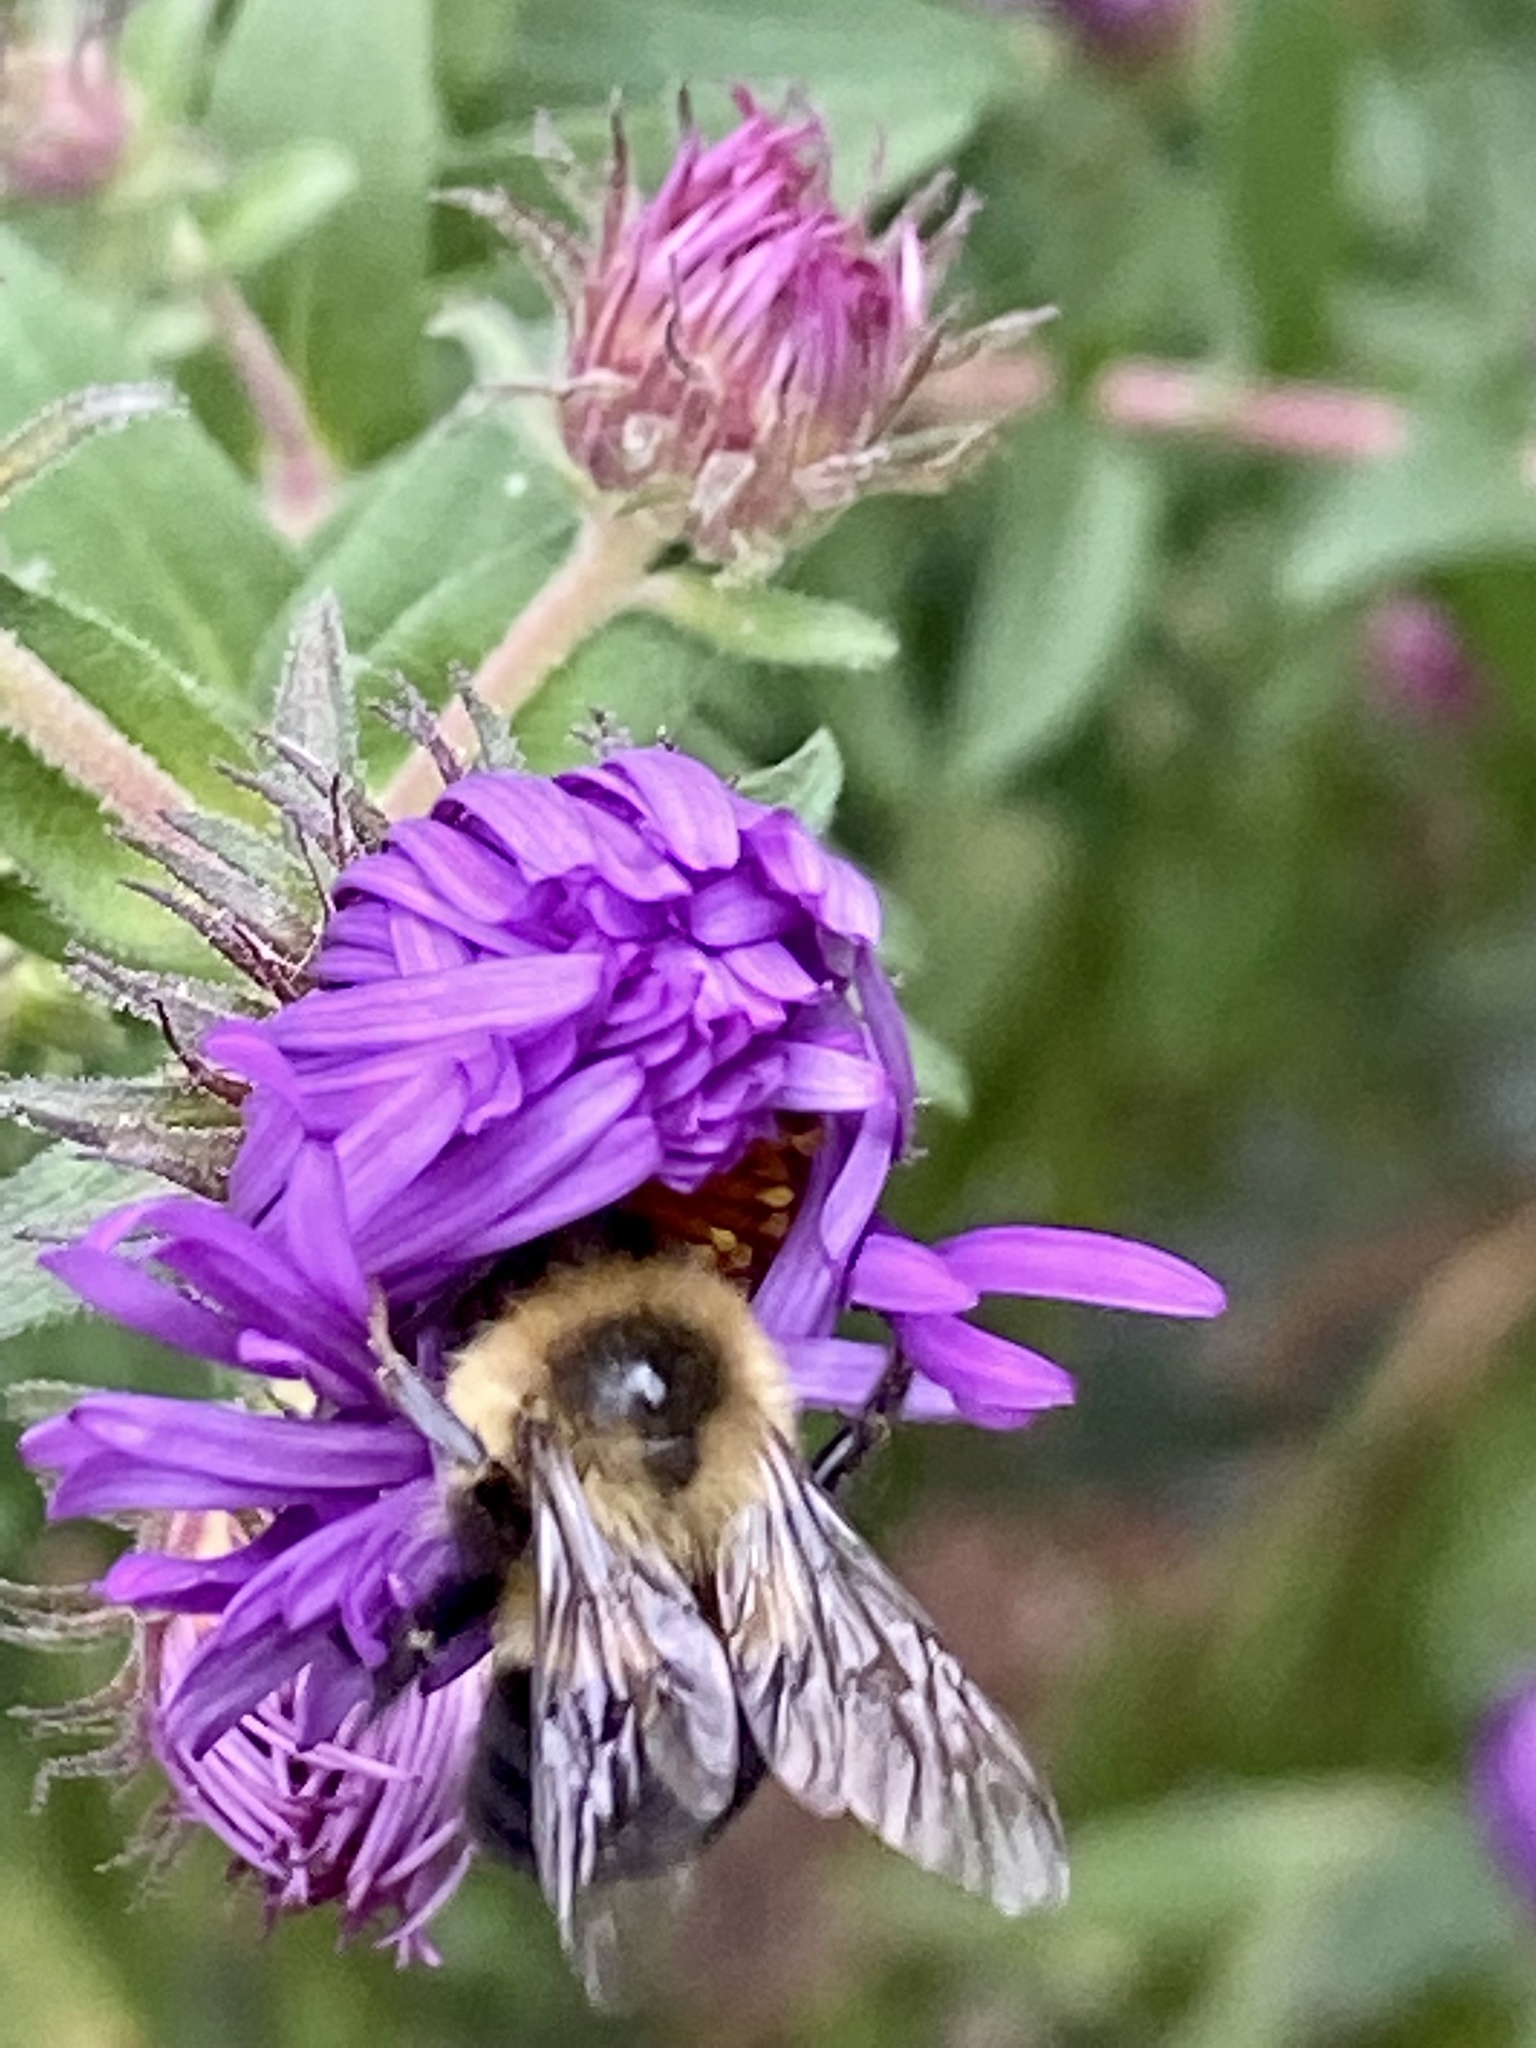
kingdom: Animalia
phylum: Arthropoda
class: Insecta
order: Hymenoptera
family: Apidae
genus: Bombus
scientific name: Bombus impatiens
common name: Common eastern bumble bee
